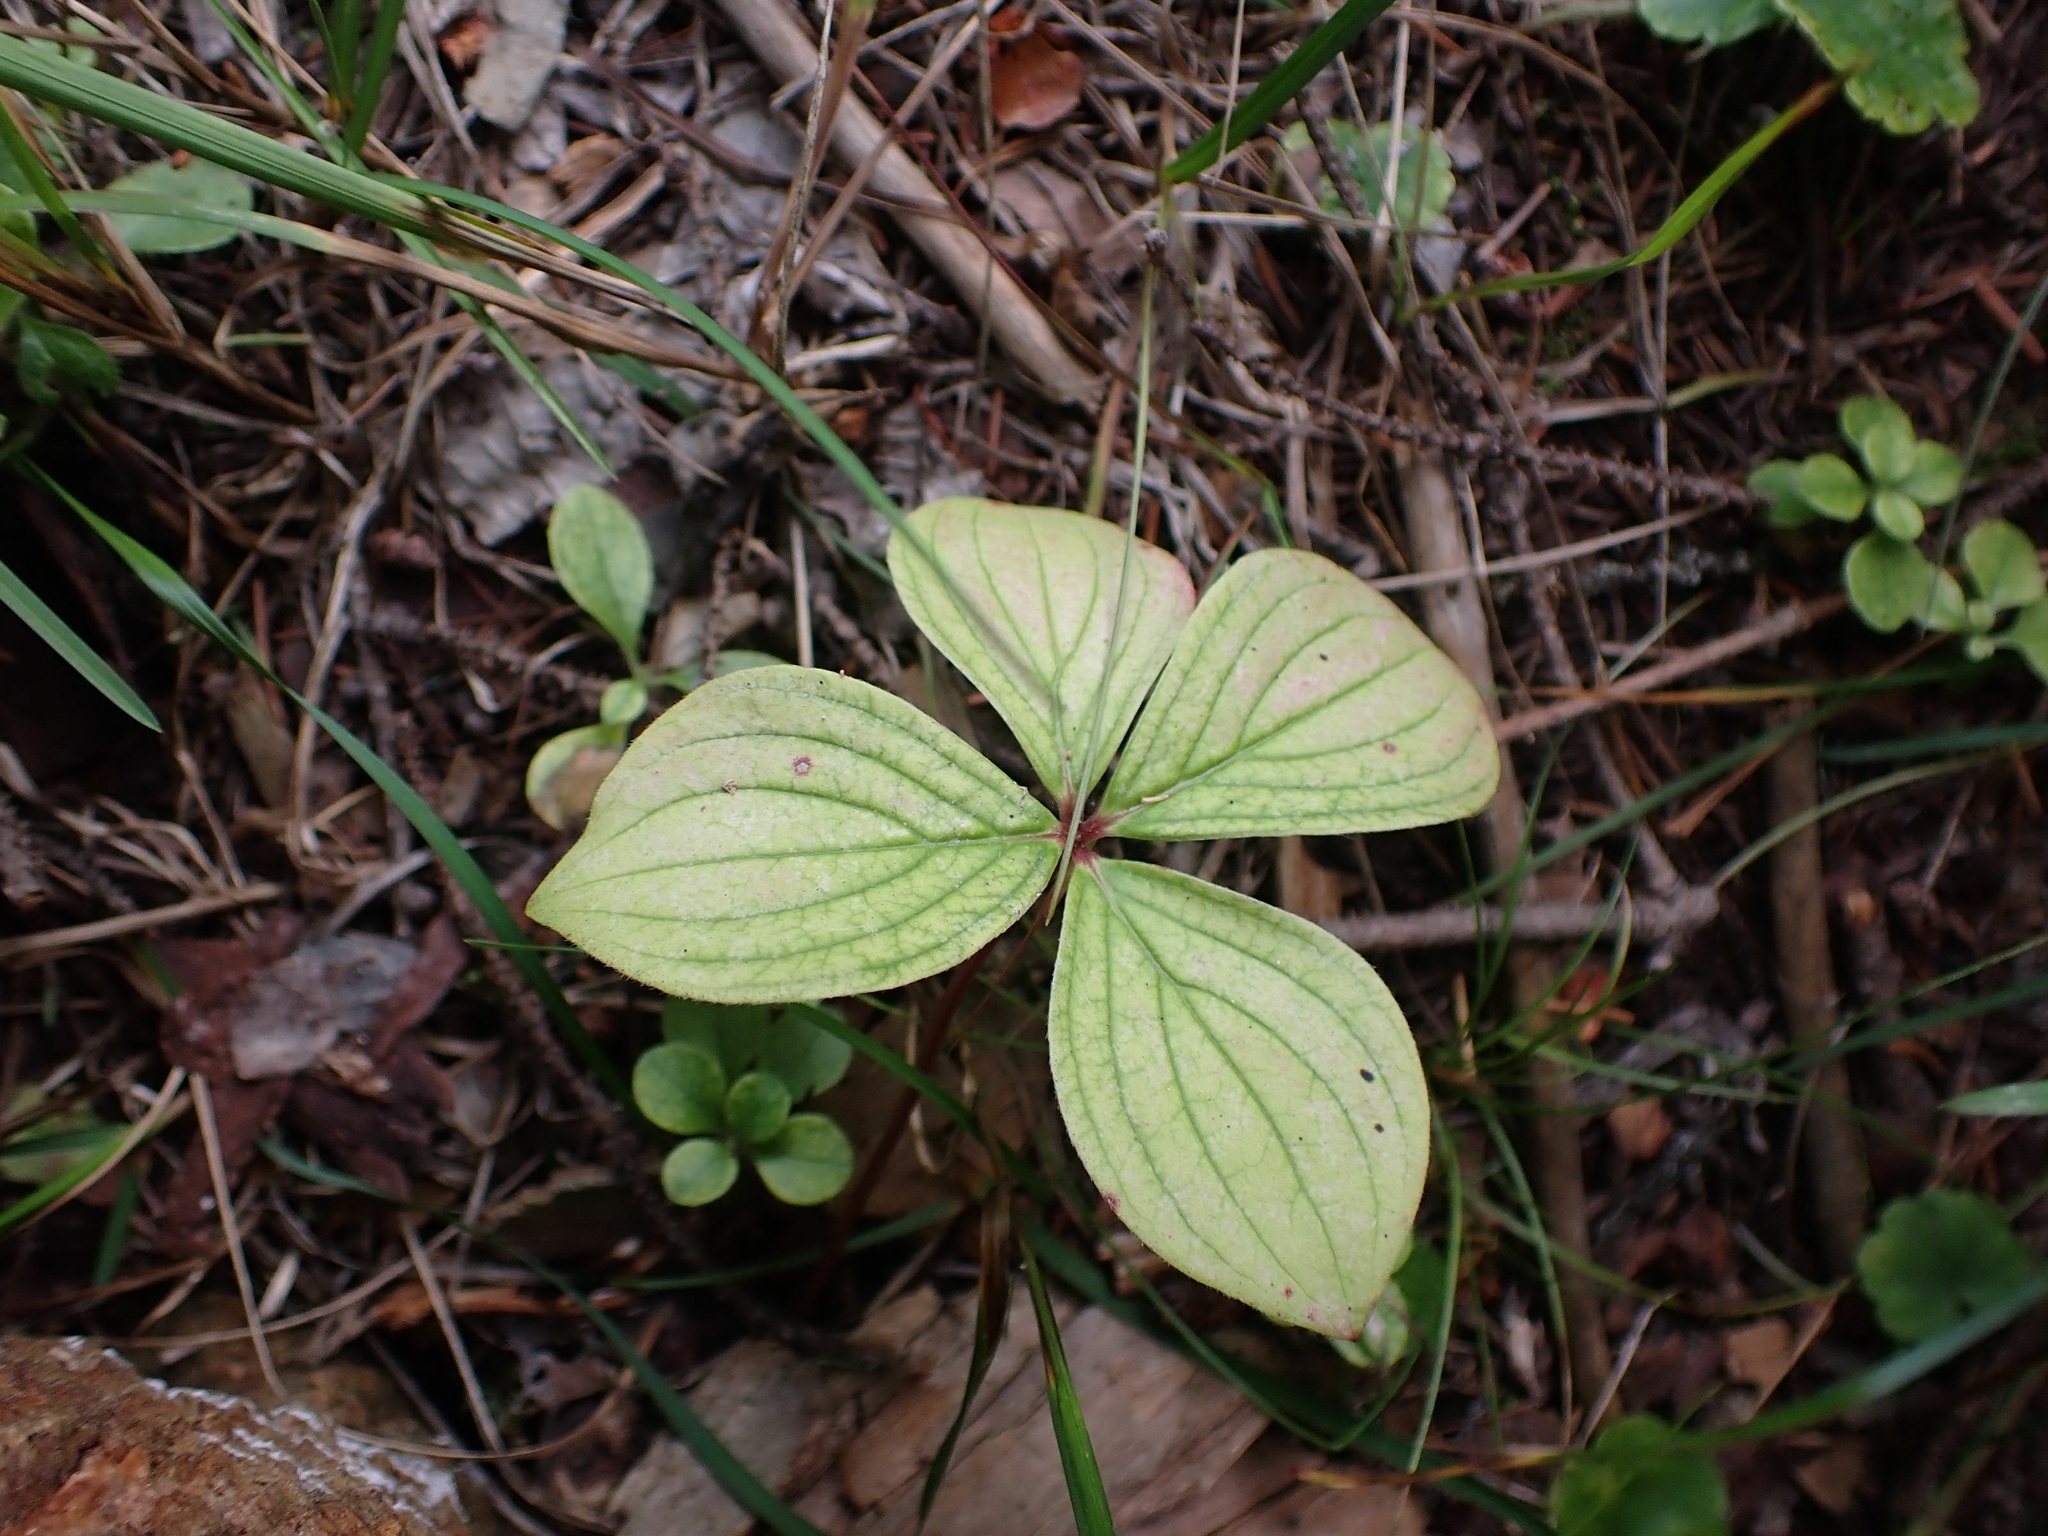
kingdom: Plantae
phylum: Tracheophyta
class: Magnoliopsida
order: Cornales
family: Cornaceae
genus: Cornus
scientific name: Cornus canadensis
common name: Creeping dogwood
